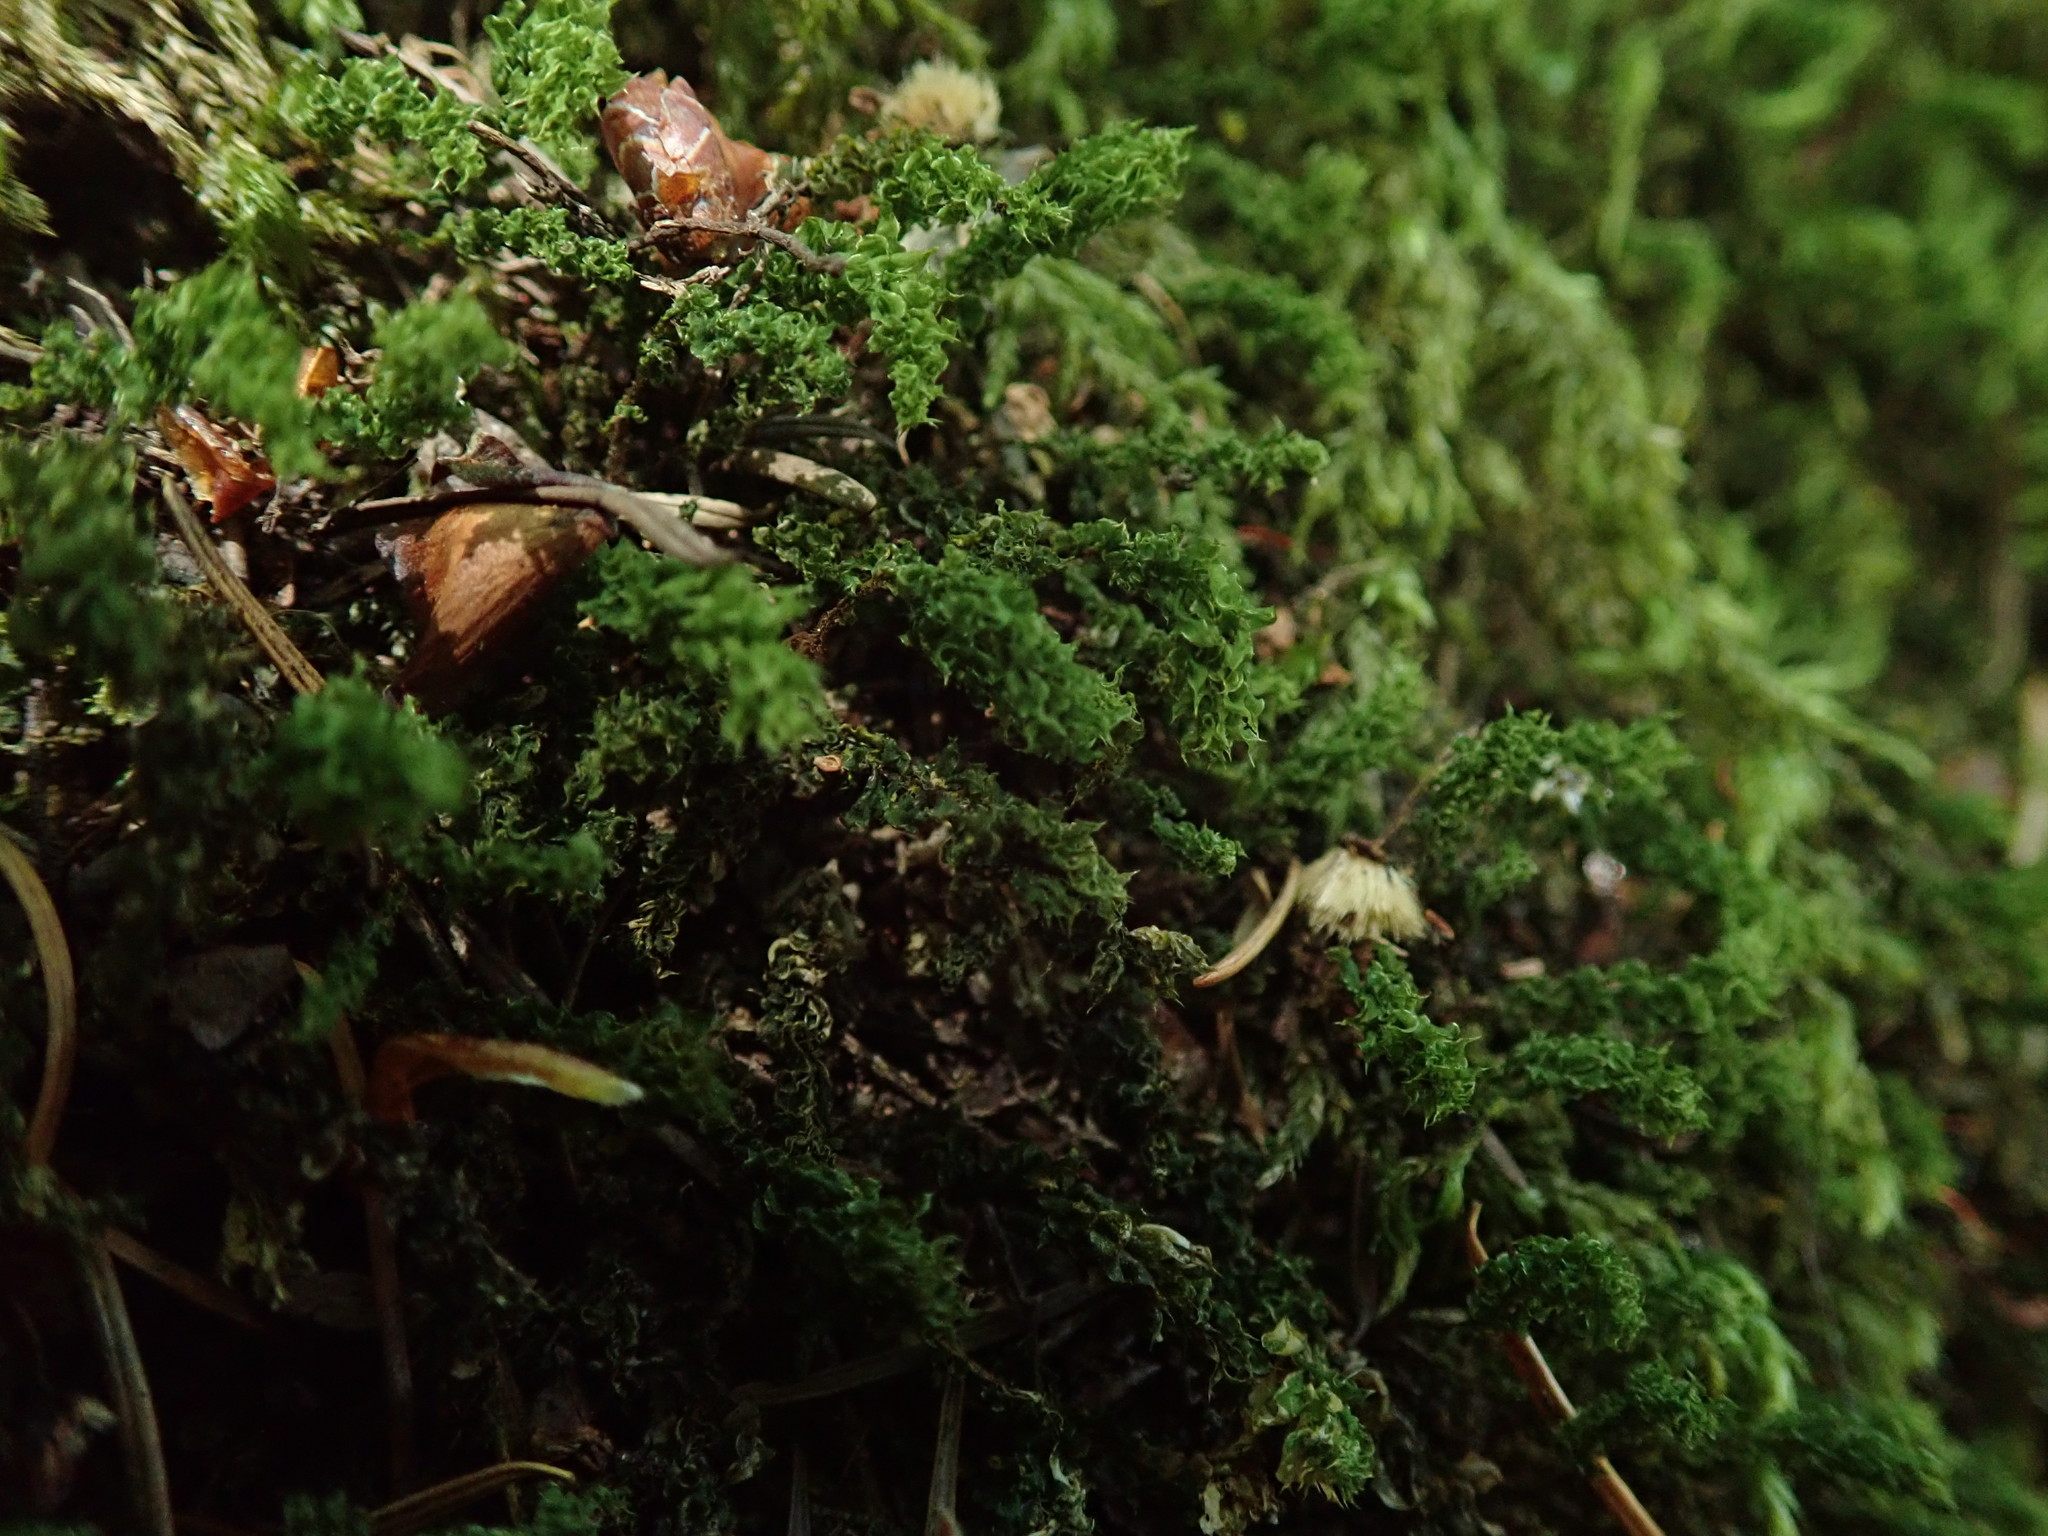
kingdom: Plantae
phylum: Bryophyta
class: Bryopsida
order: Bryales
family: Mniaceae
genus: Plagiomnium
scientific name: Plagiomnium venustum
